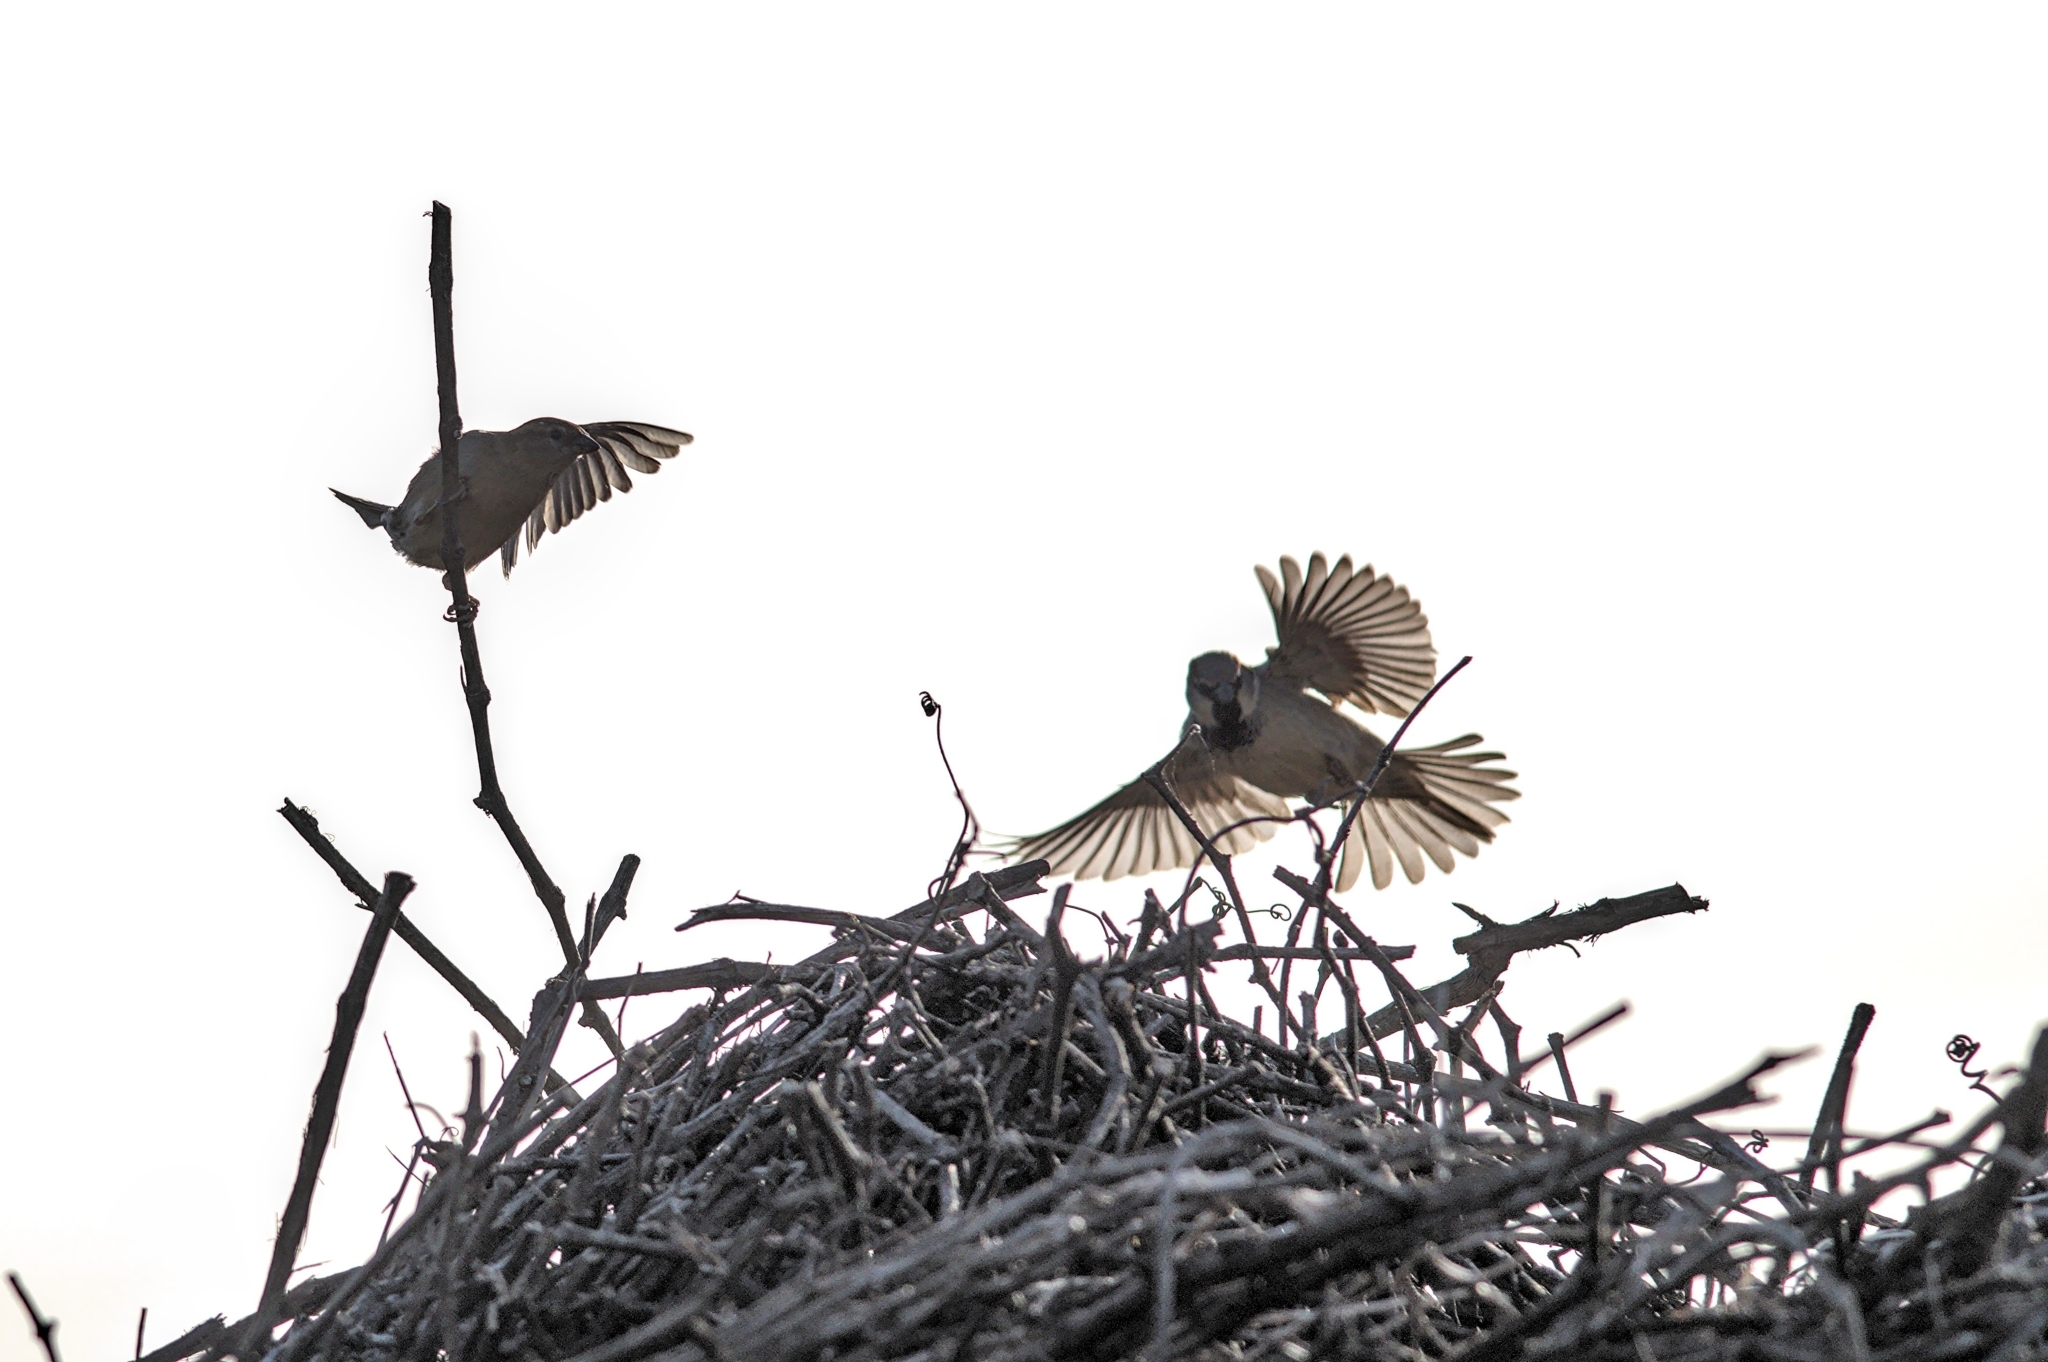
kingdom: Animalia
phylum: Chordata
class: Aves
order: Passeriformes
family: Passeridae
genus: Passer
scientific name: Passer domesticus
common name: House sparrow
